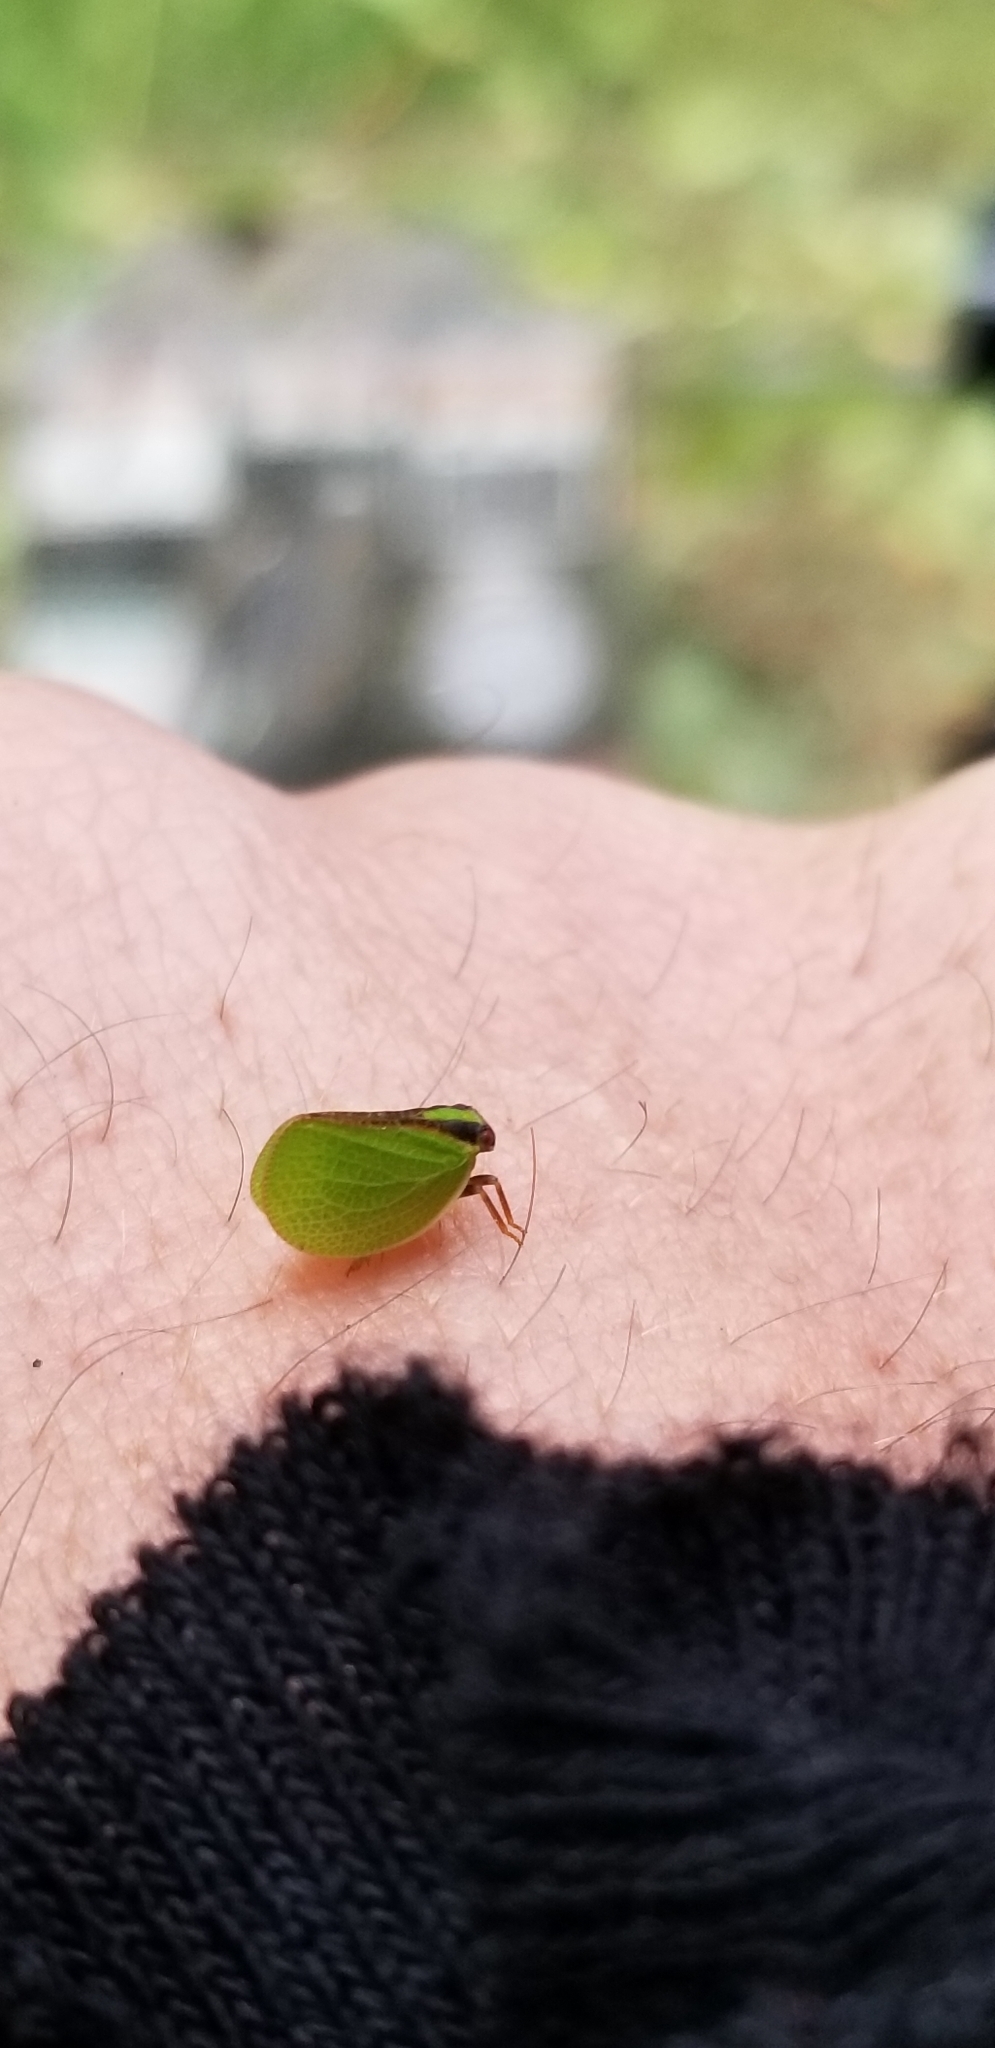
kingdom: Animalia
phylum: Arthropoda
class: Insecta
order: Hemiptera
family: Acanaloniidae
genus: Acanalonia
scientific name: Acanalonia bivittata
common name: Two-striped planthopper
